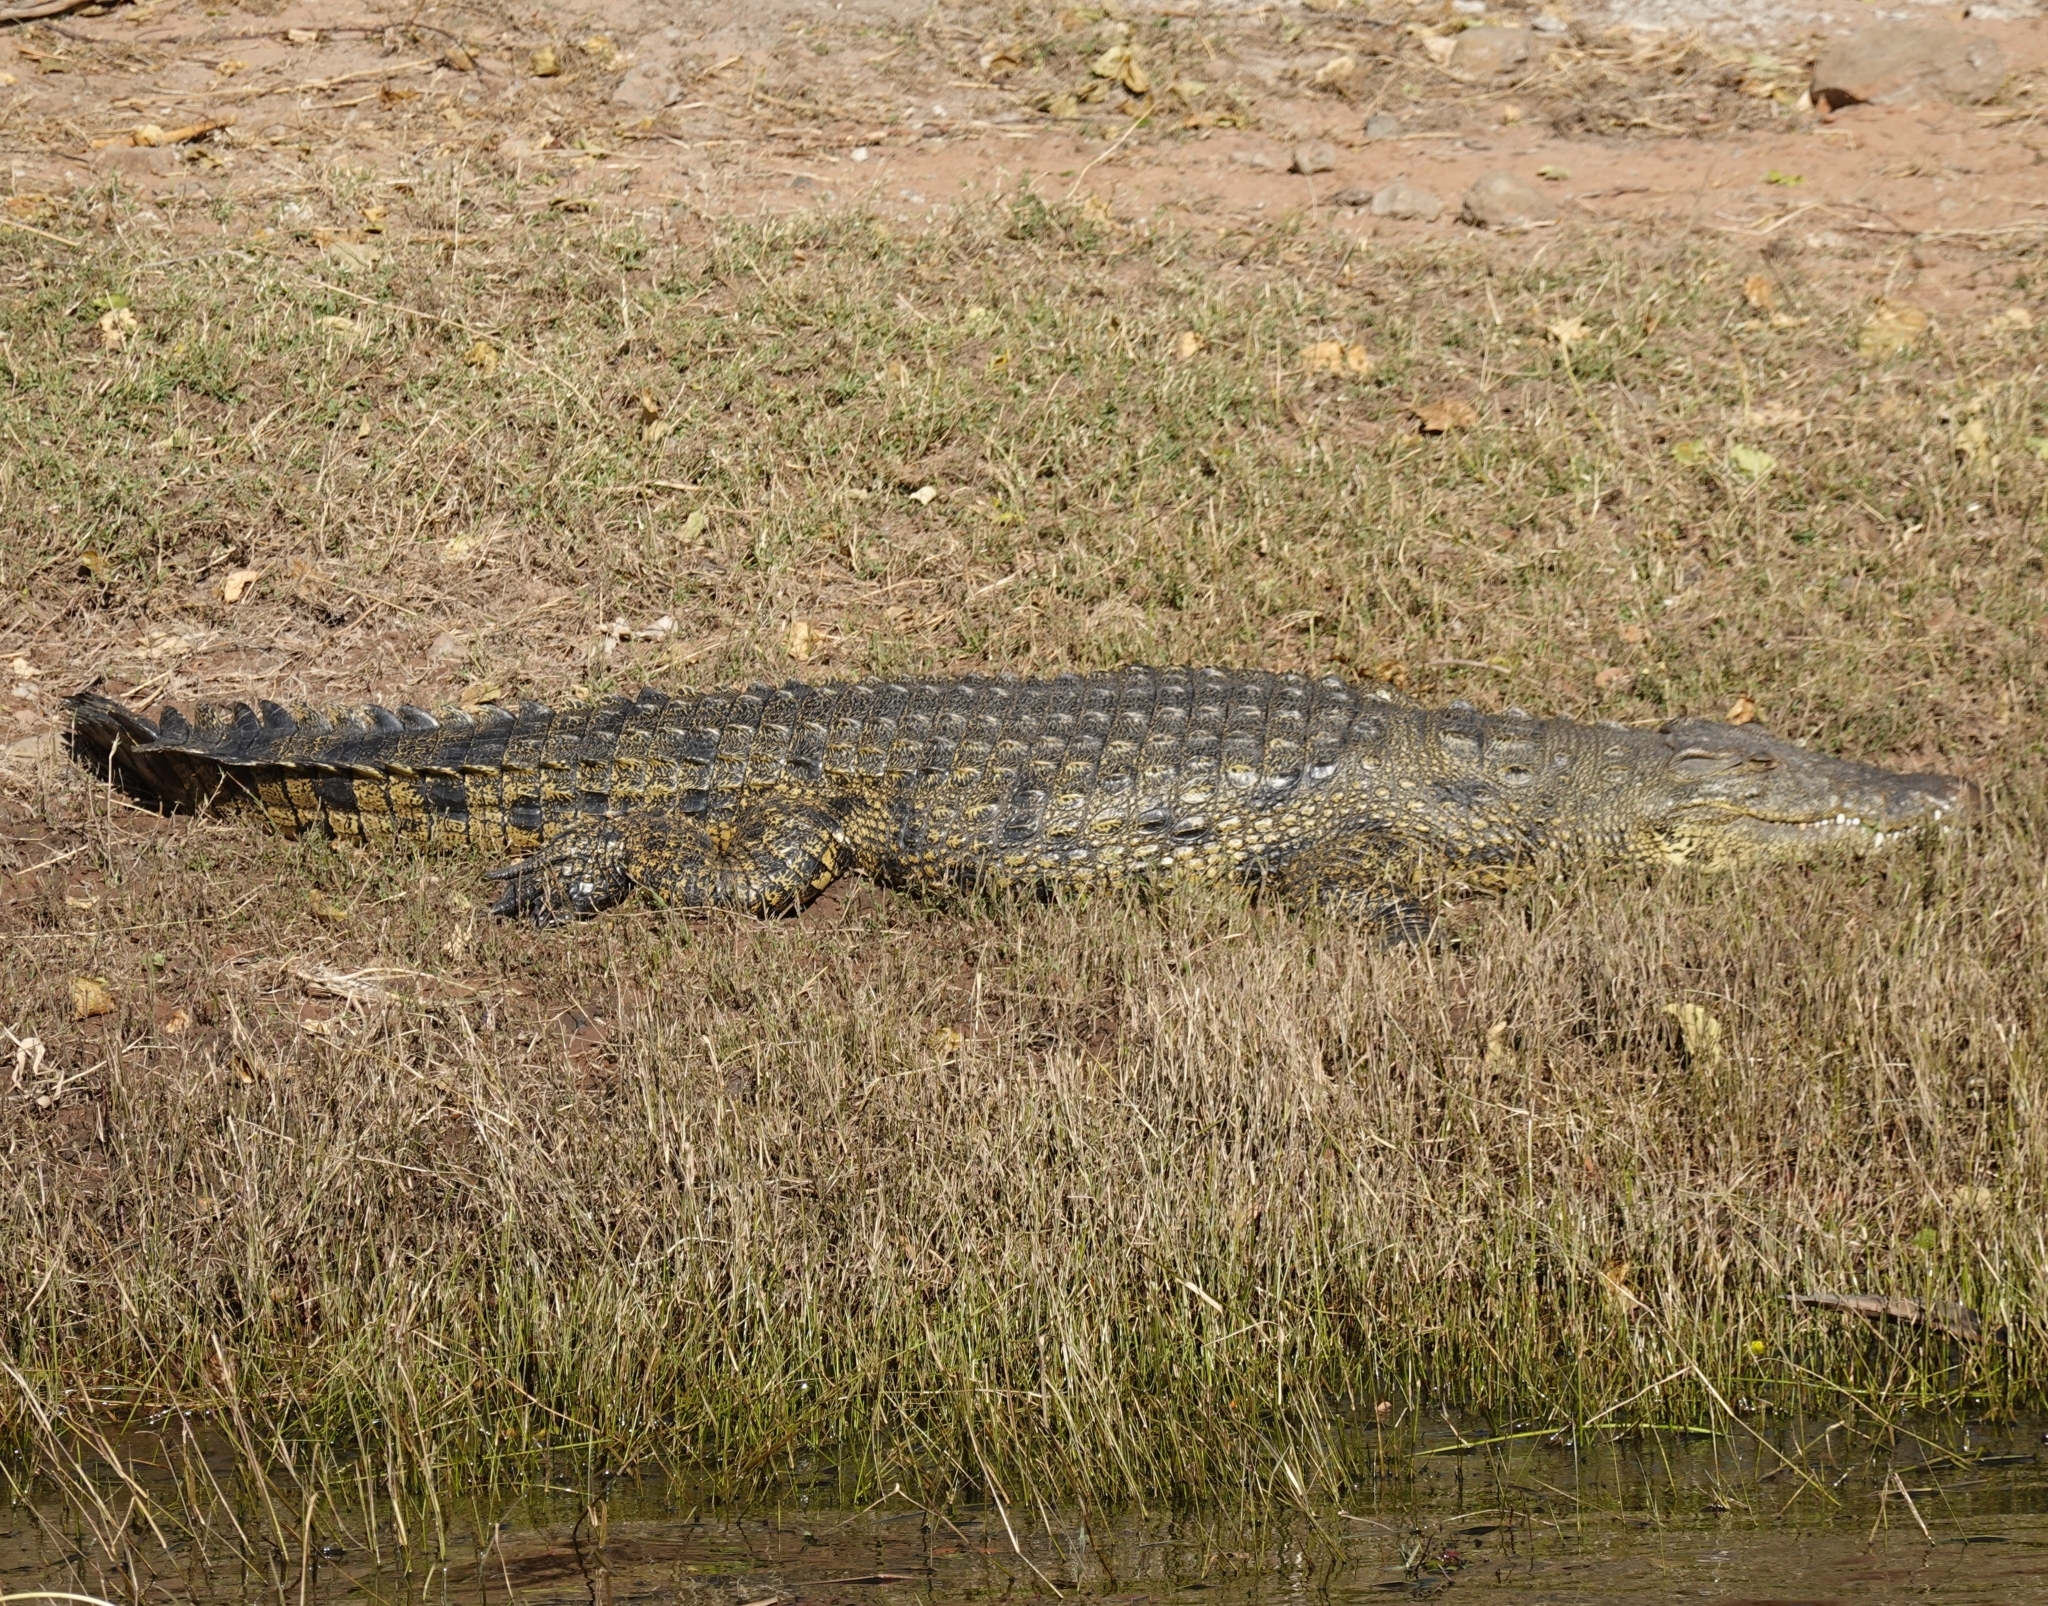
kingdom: Animalia
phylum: Chordata
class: Crocodylia
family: Crocodylidae
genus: Crocodylus
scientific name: Crocodylus niloticus
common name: Nile crocodile
